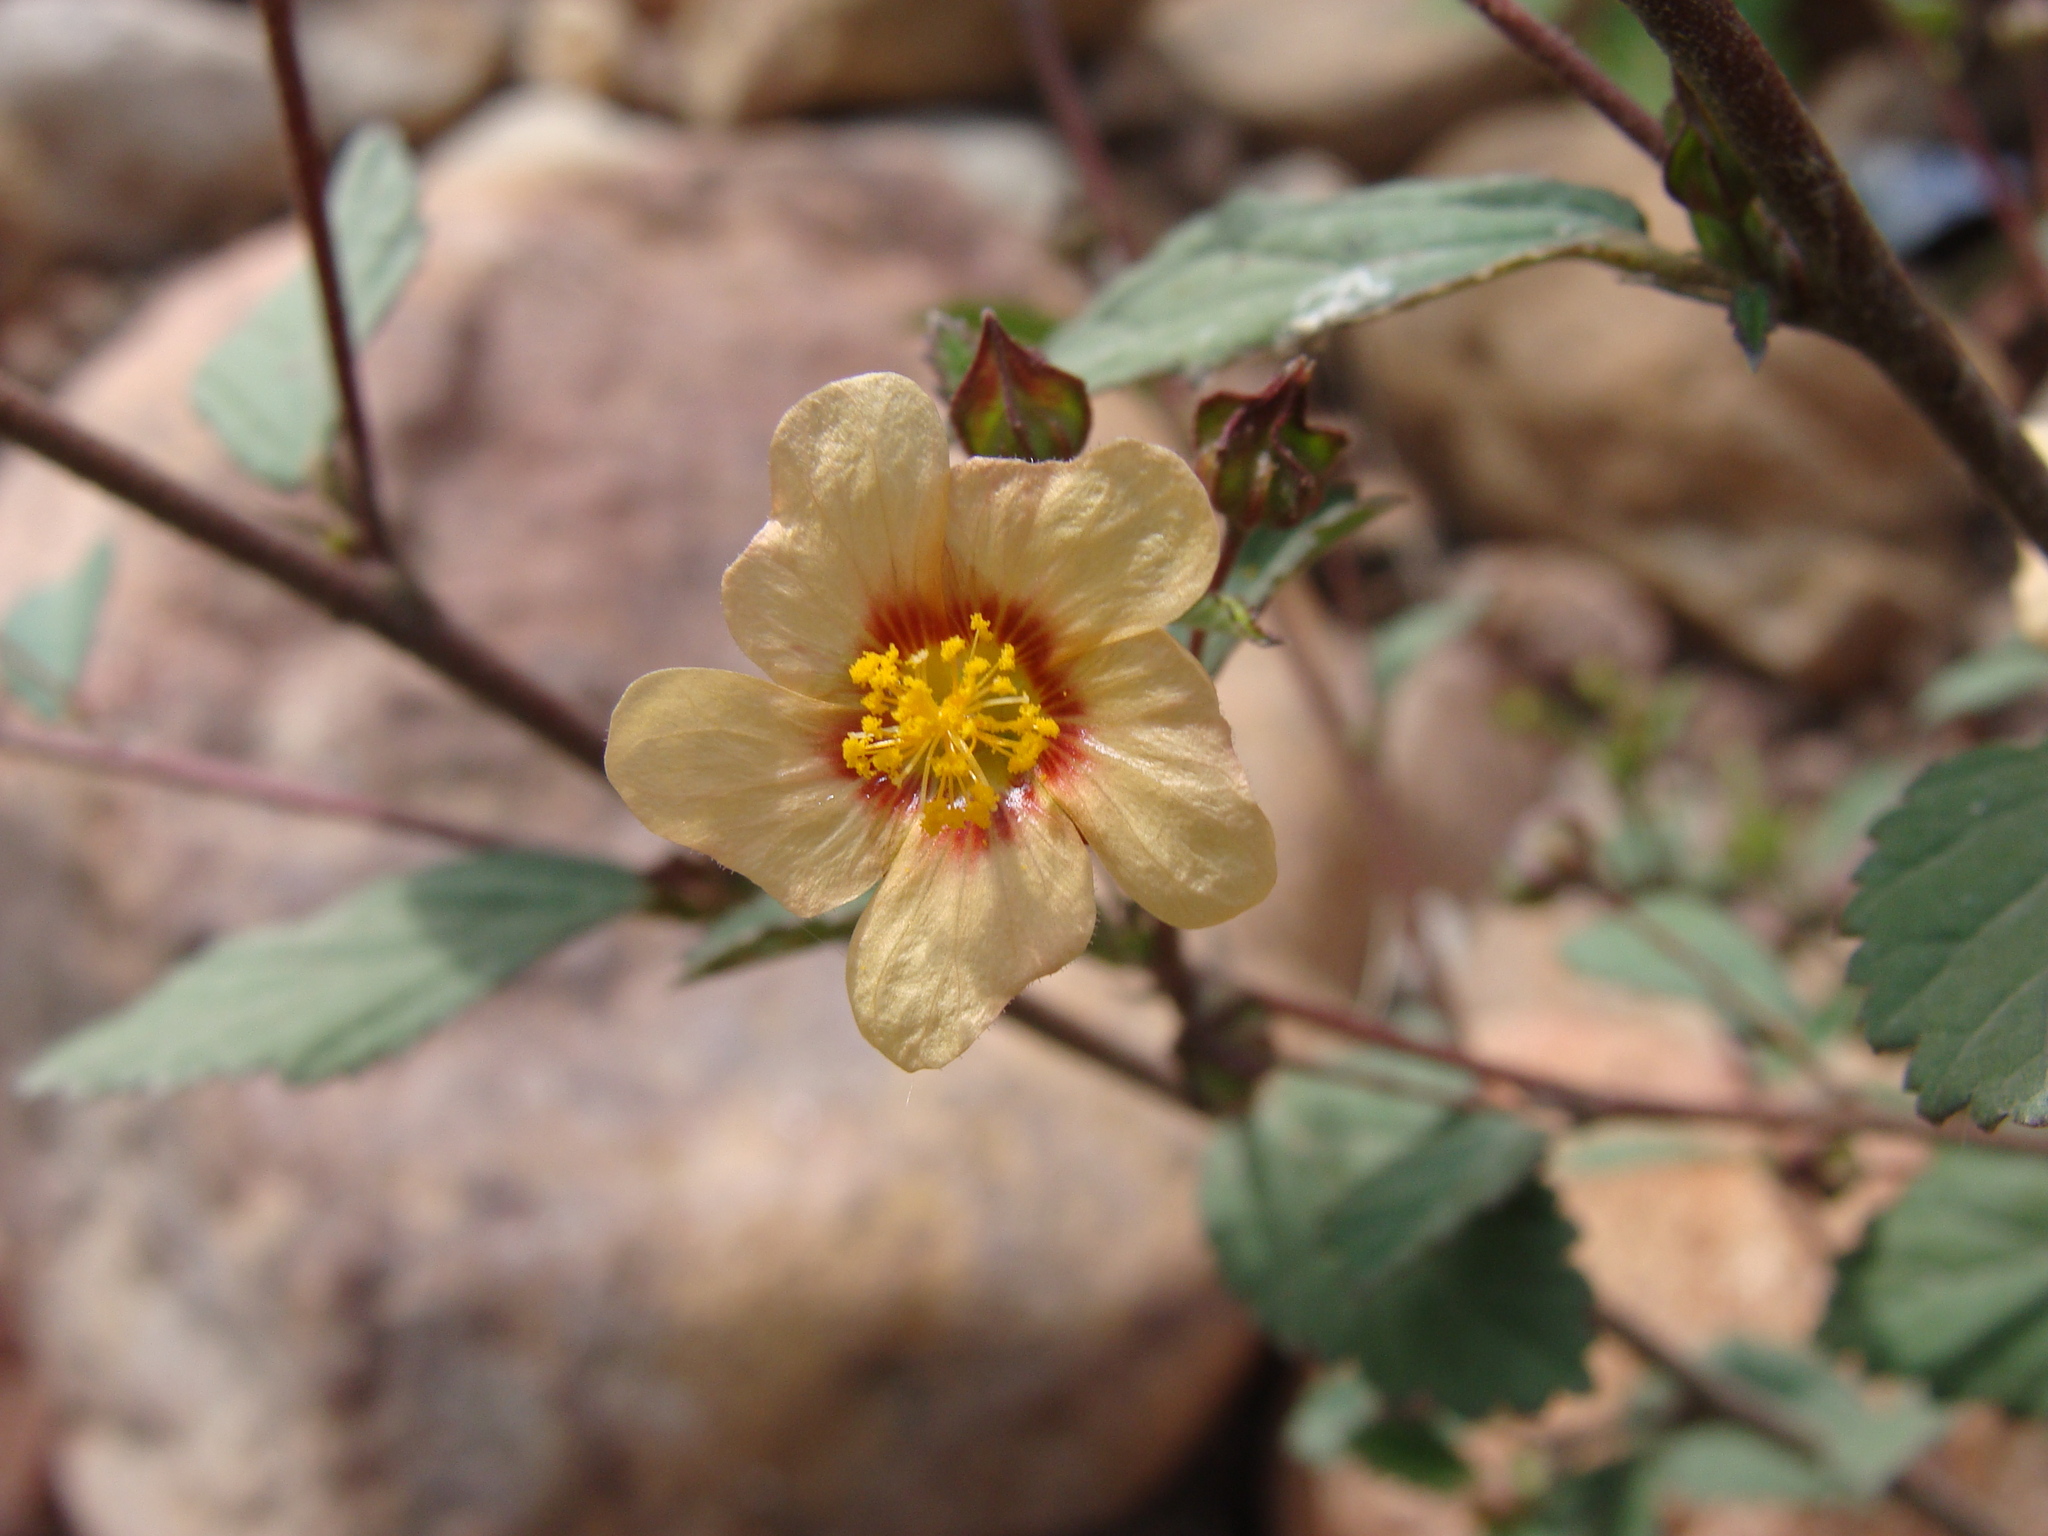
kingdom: Plantae
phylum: Tracheophyta
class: Magnoliopsida
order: Malvales
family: Malvaceae
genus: Sida
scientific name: Sida rhombifolia
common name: Queensland-hemp
